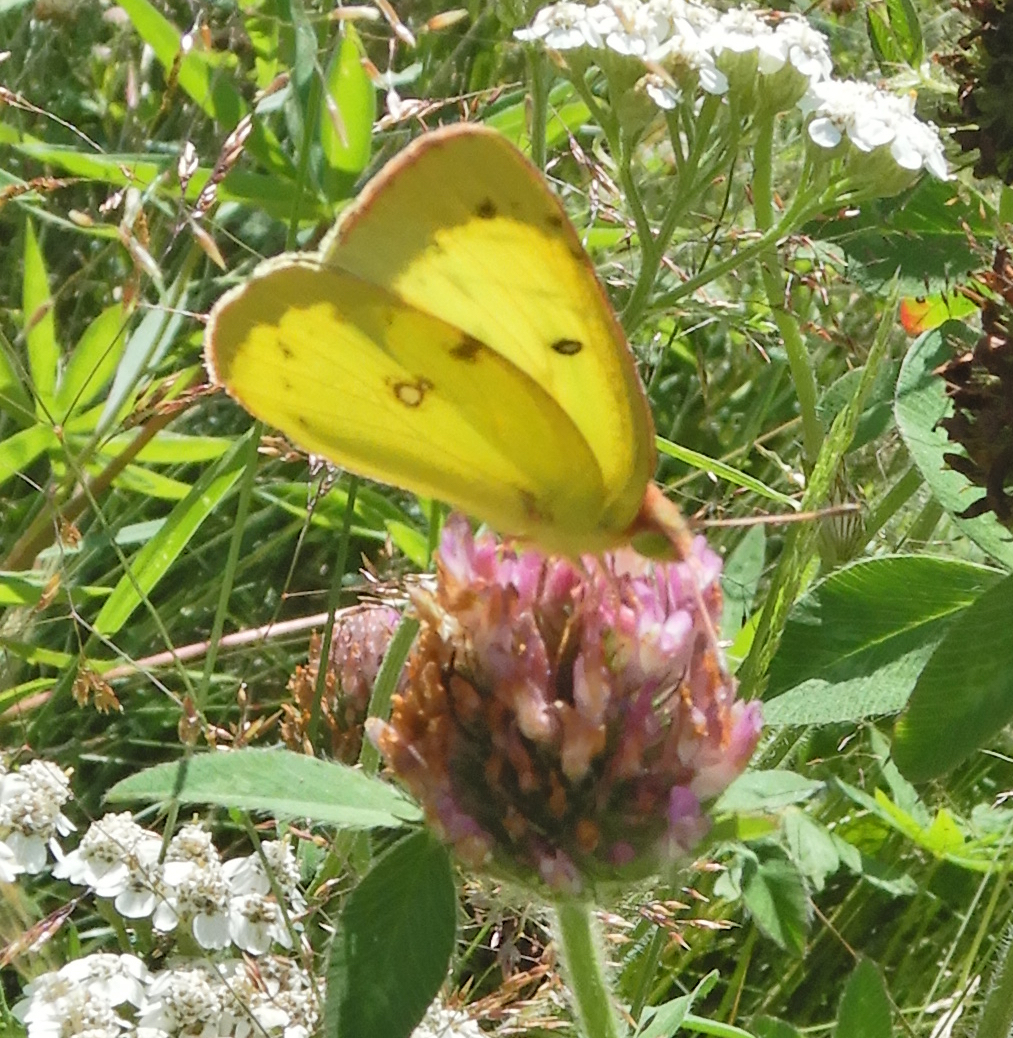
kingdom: Animalia
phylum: Arthropoda
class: Insecta
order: Lepidoptera
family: Pieridae
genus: Colias
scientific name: Colias philodice
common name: Clouded sulphur
